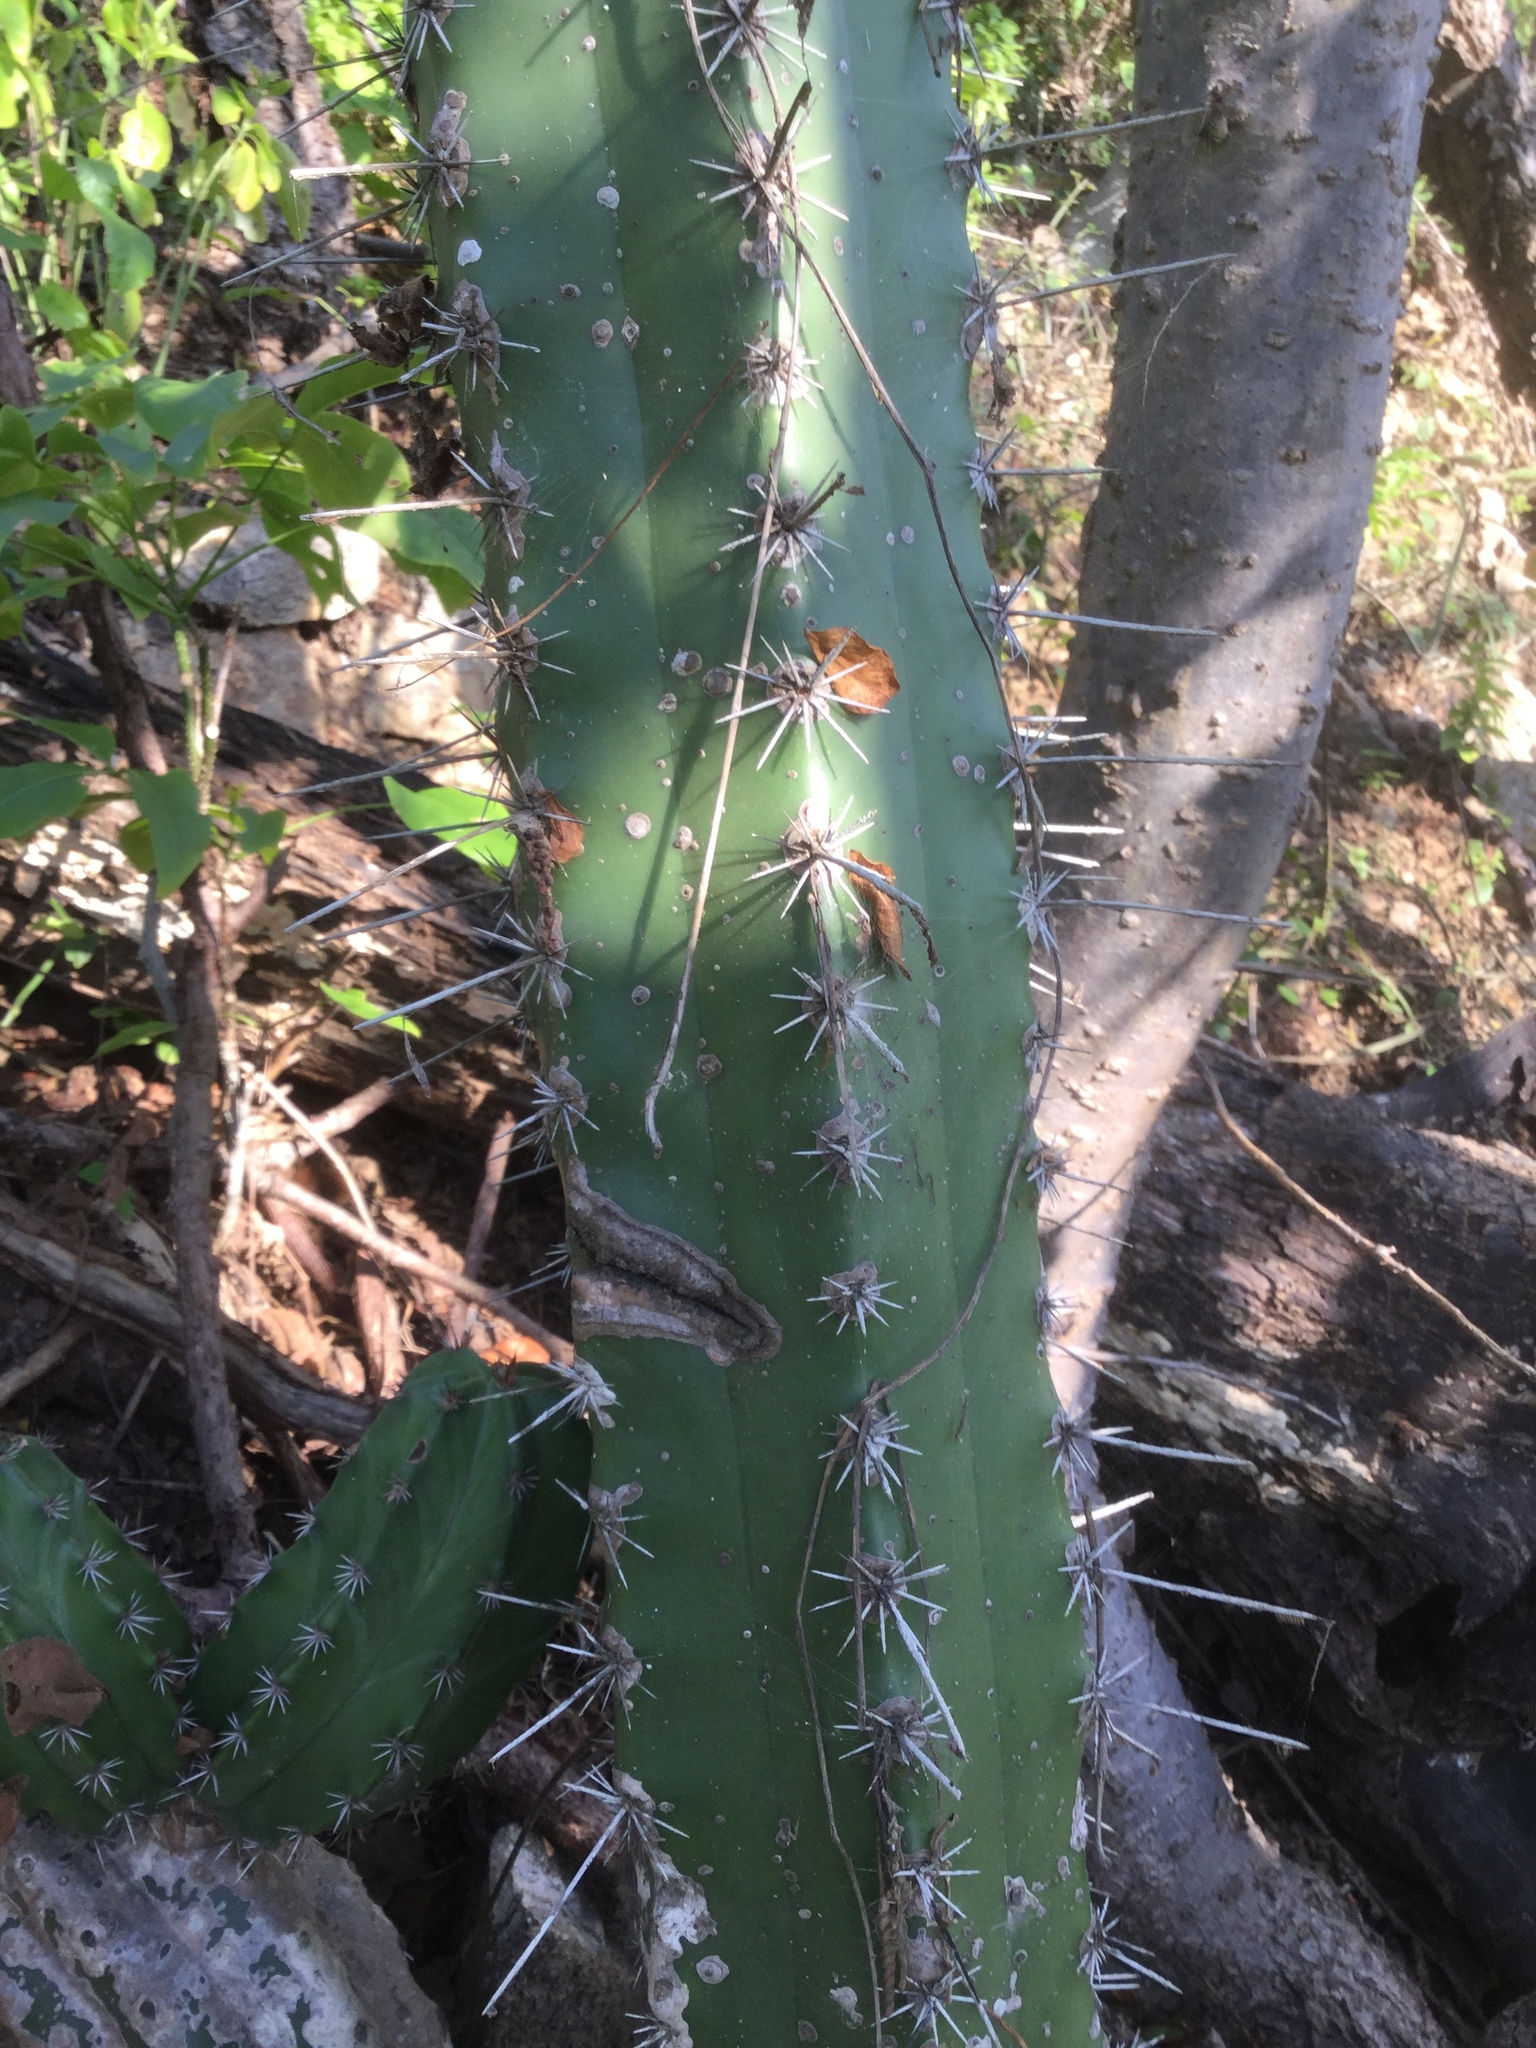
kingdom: Plantae
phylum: Tracheophyta
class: Magnoliopsida
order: Caryophyllales
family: Cactaceae
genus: Stenocereus
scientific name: Stenocereus chacalapensis
